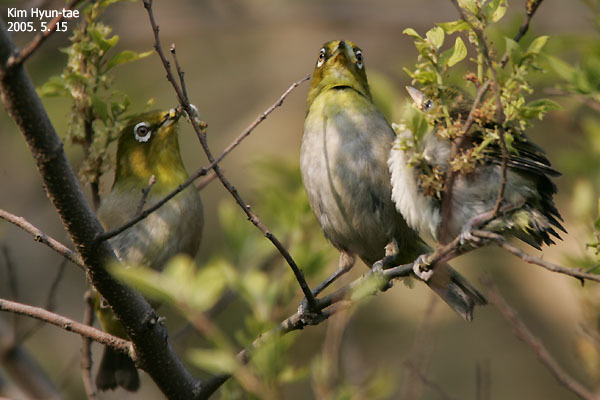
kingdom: Animalia
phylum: Chordata
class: Aves
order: Passeriformes
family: Zosteropidae
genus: Zosterops
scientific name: Zosterops japonicus
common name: Japanese white-eye
